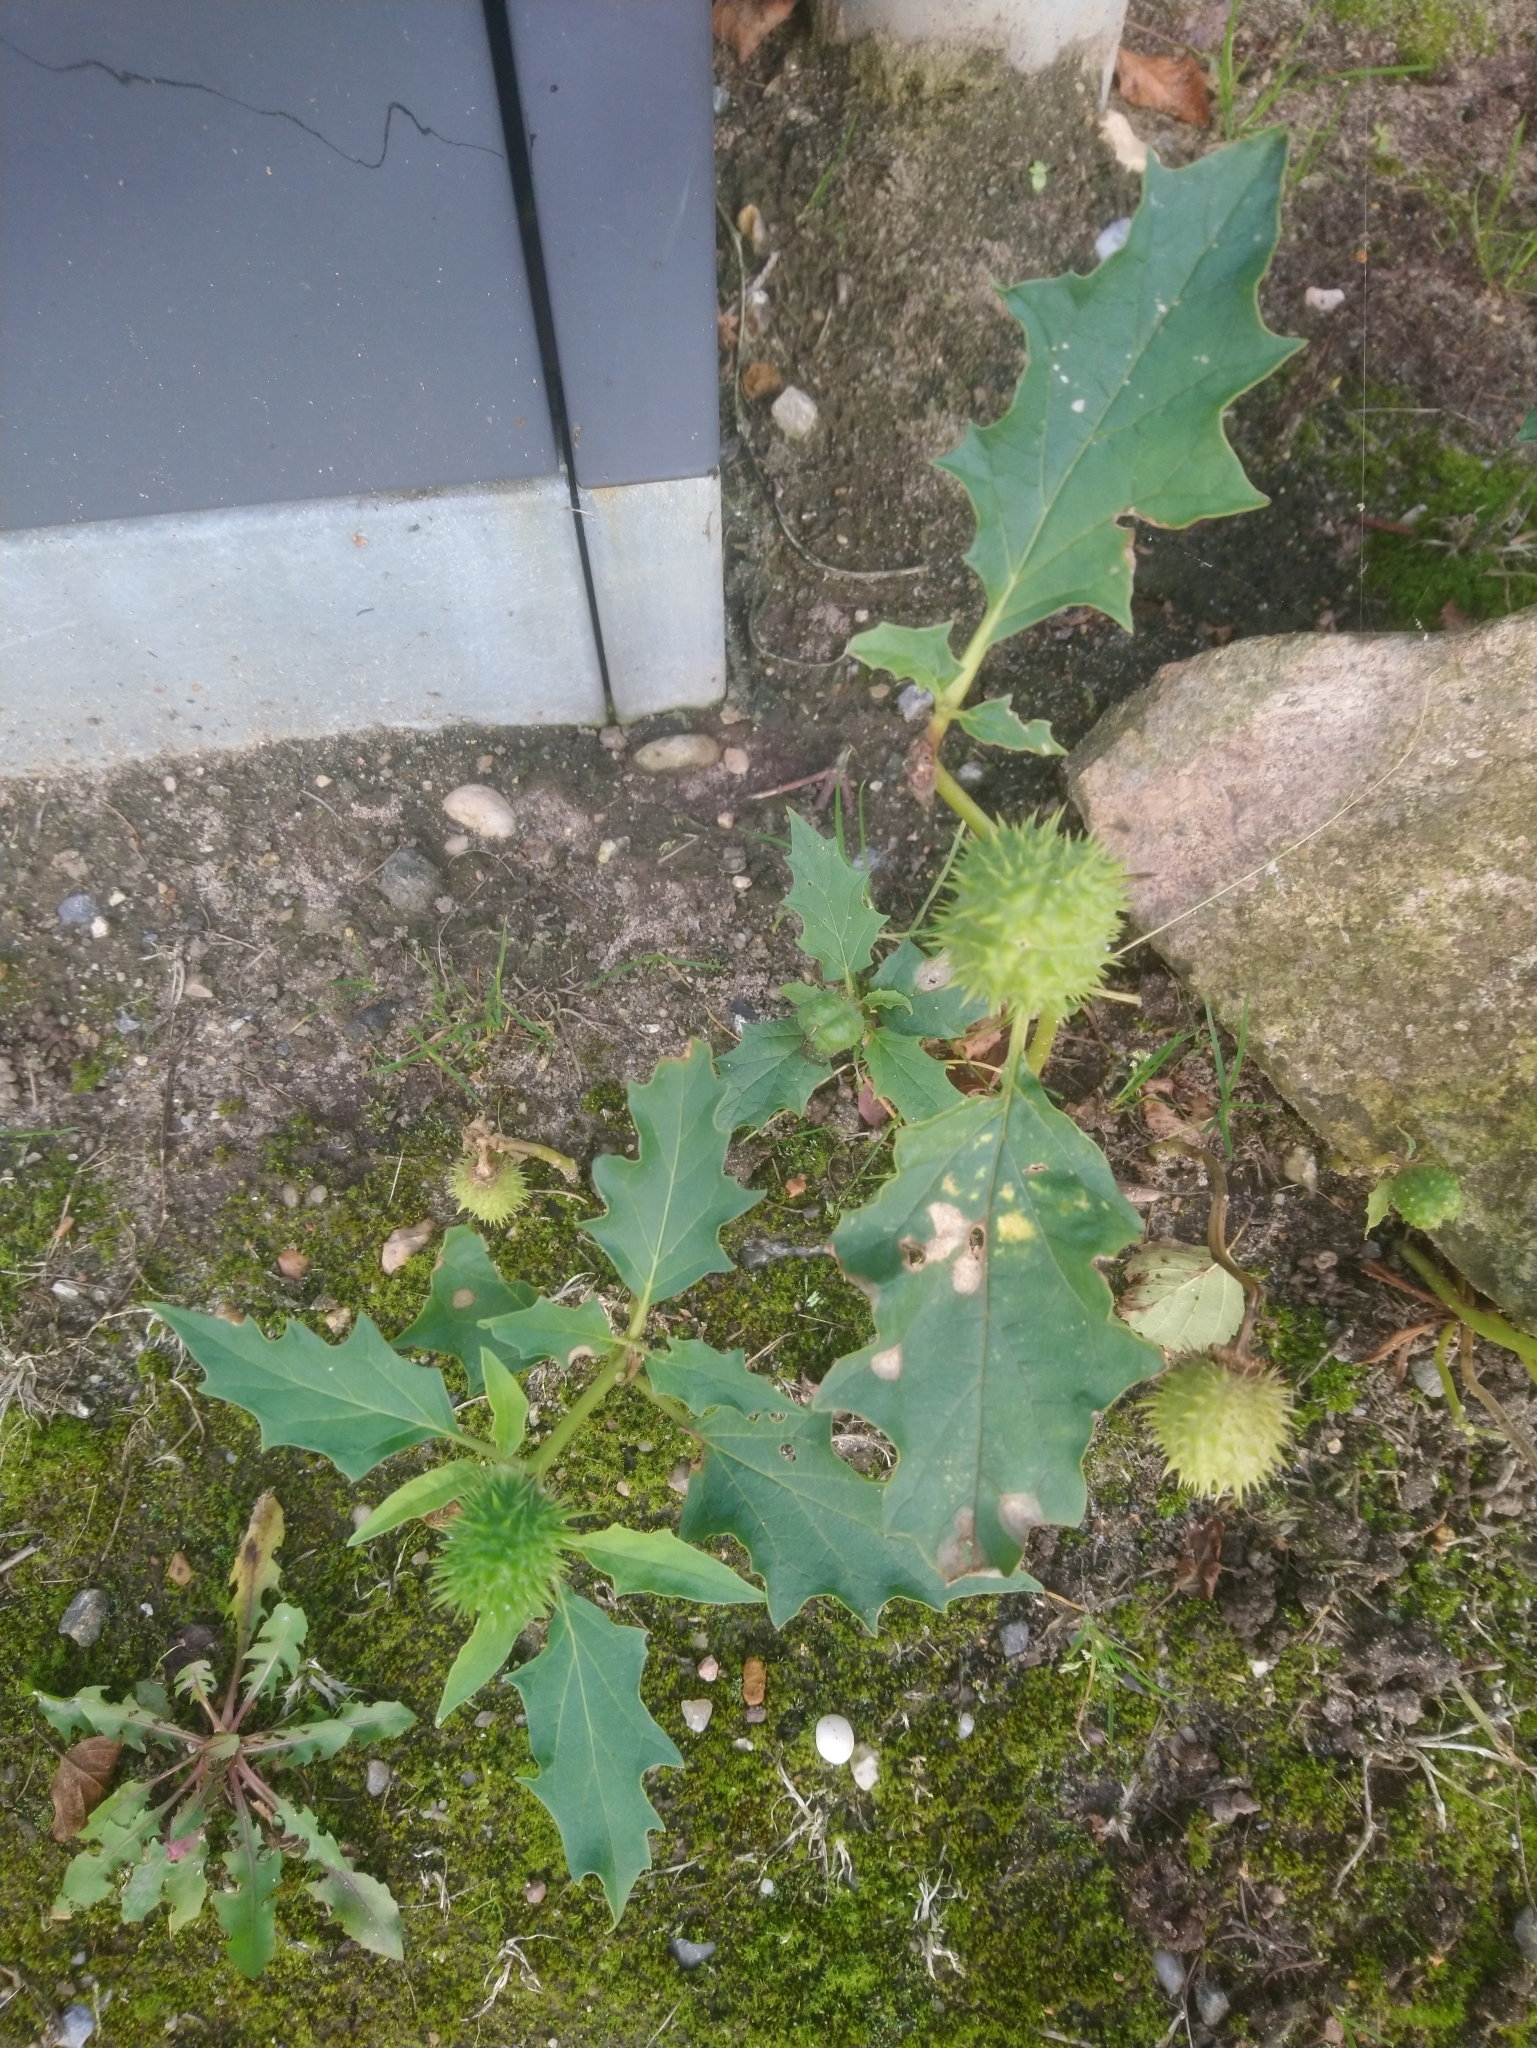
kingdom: Plantae
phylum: Tracheophyta
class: Magnoliopsida
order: Solanales
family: Solanaceae
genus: Datura
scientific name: Datura stramonium
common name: Thorn-apple
